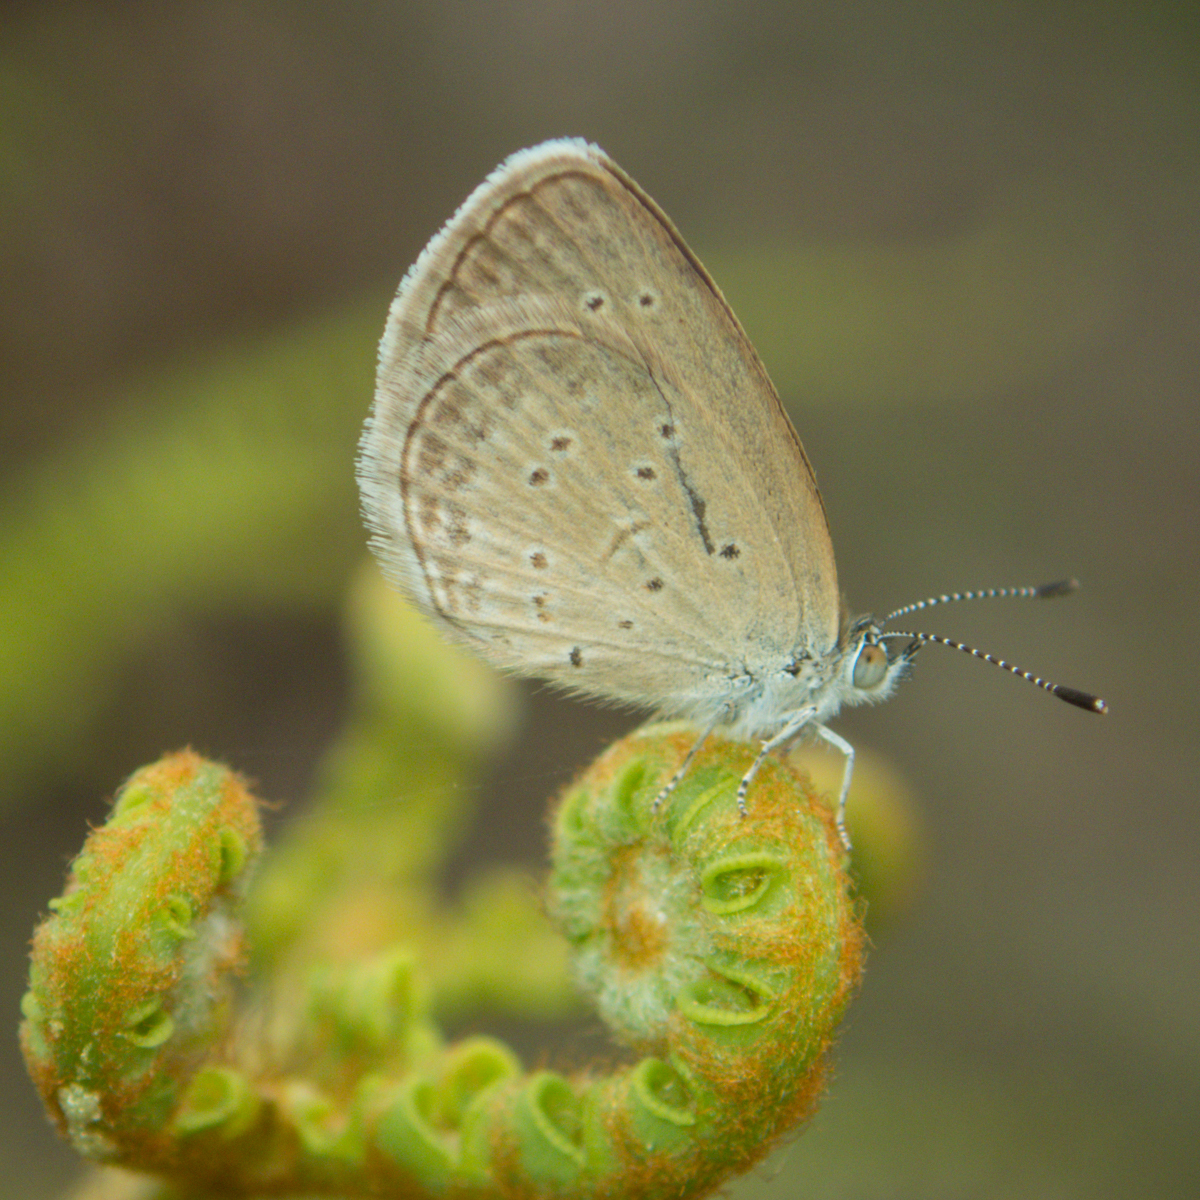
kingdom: Animalia
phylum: Arthropoda
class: Insecta
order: Lepidoptera
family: Lycaenidae
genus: Zizina
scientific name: Zizina otis
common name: Lesser grass blue
